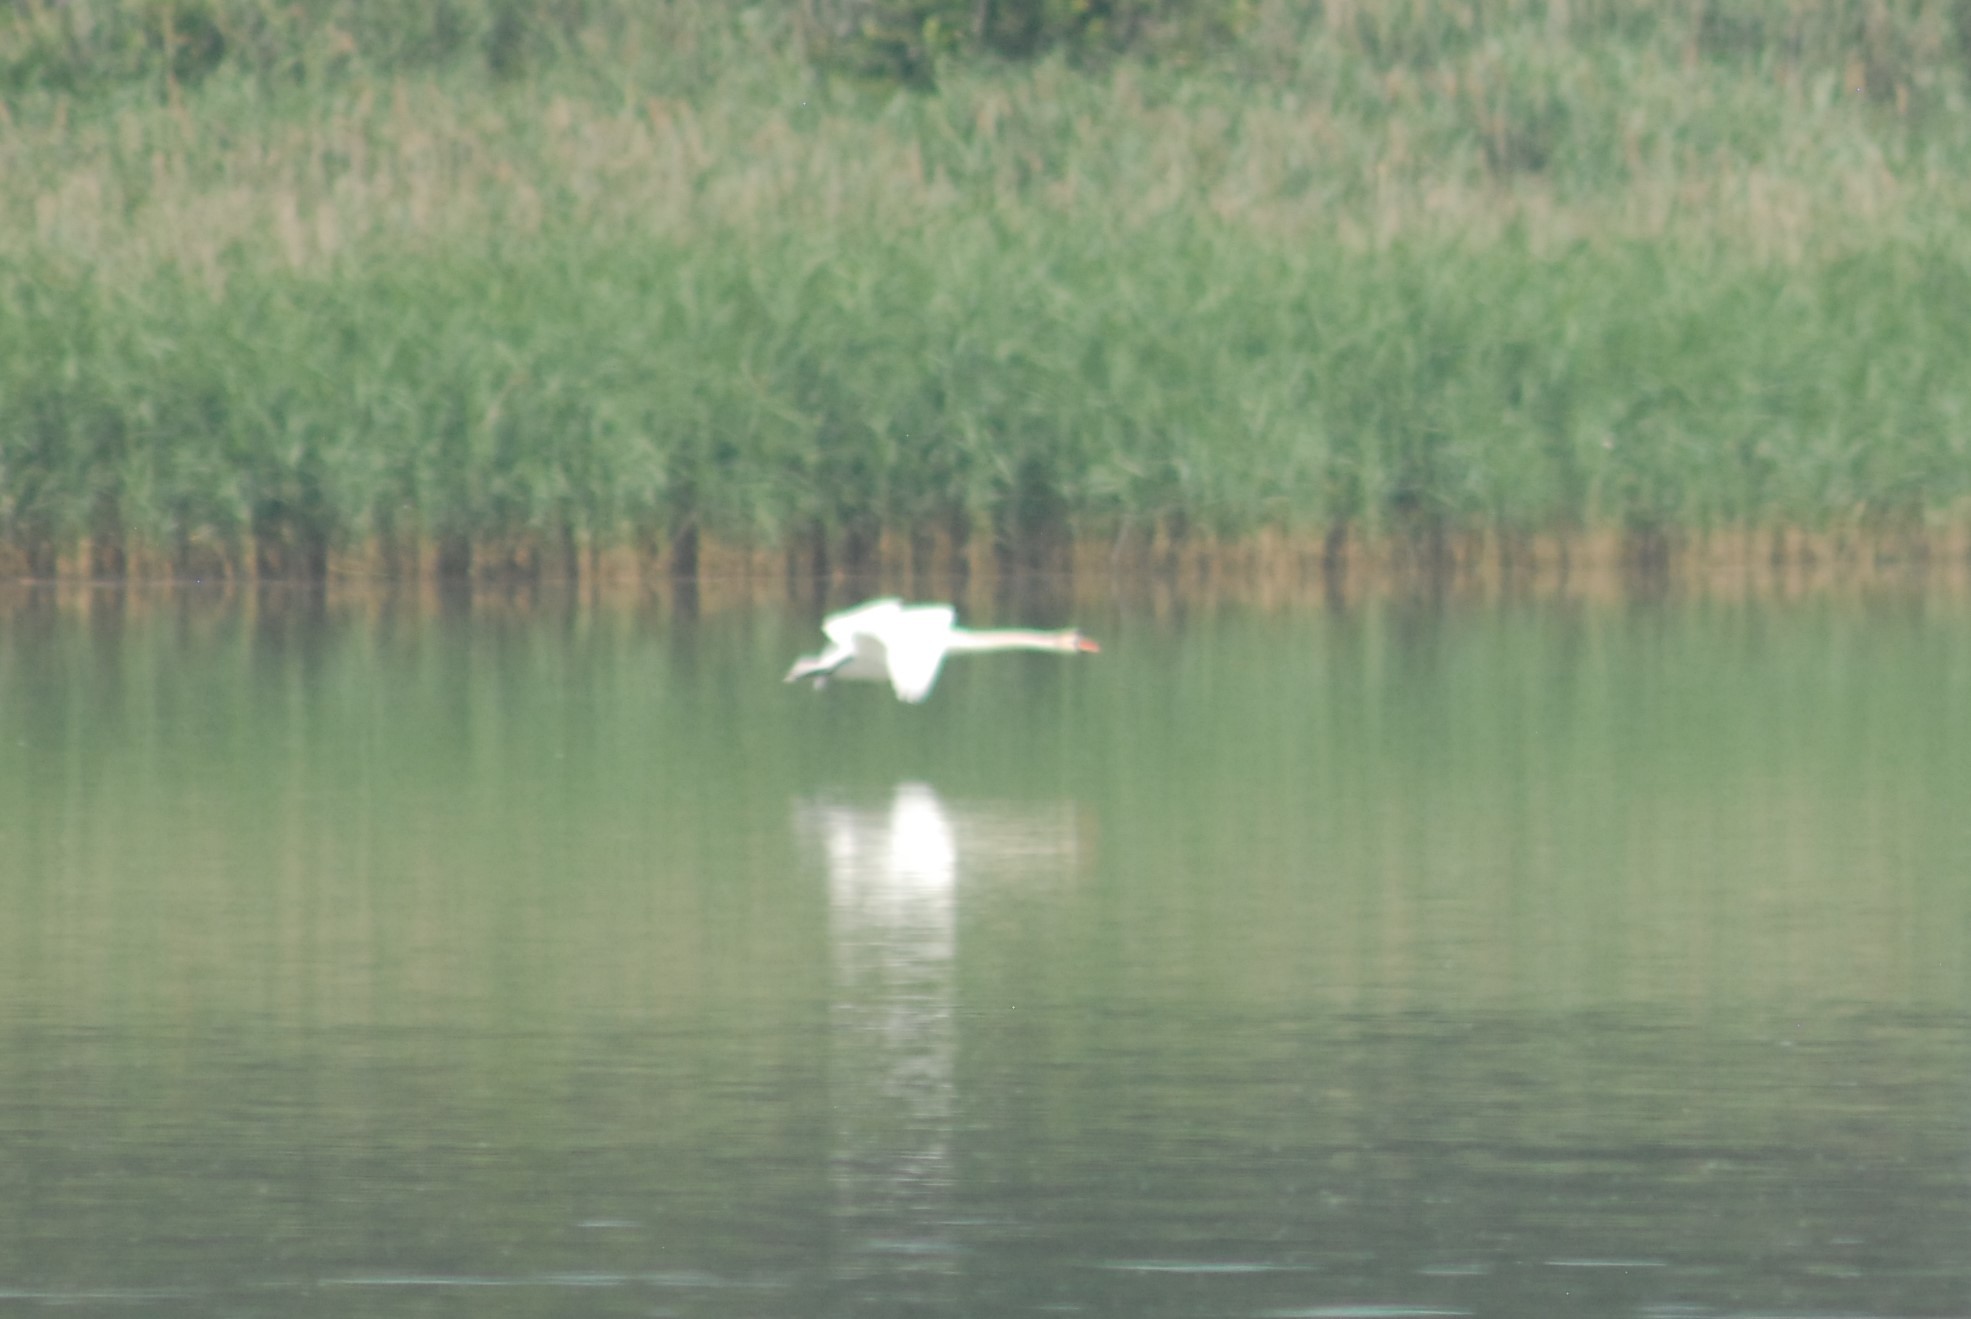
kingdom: Animalia
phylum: Chordata
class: Aves
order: Anseriformes
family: Anatidae
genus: Cygnus
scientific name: Cygnus olor
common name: Mute swan
